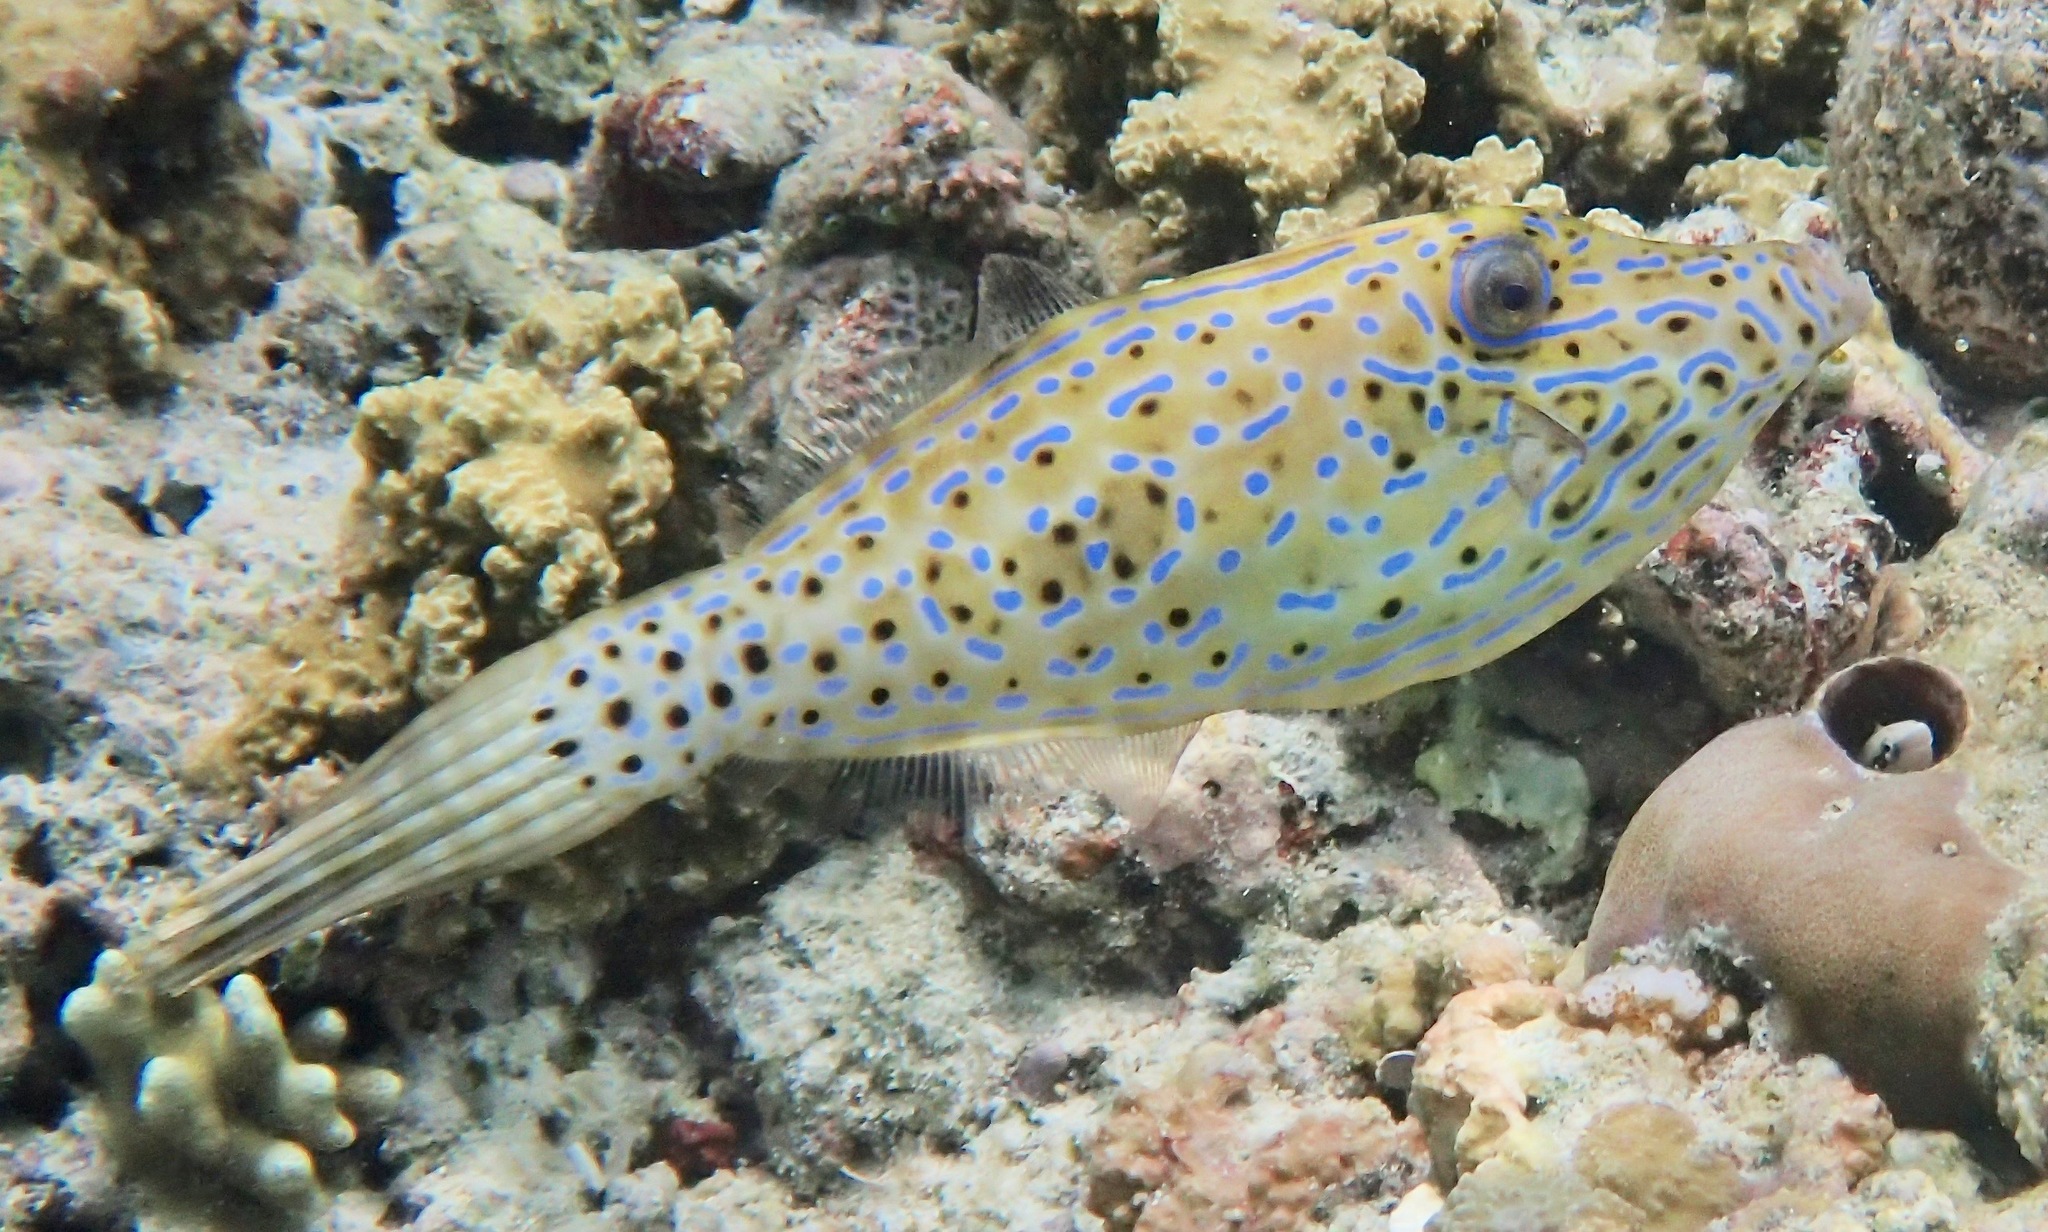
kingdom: Animalia
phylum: Chordata
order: Tetraodontiformes
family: Monacanthidae
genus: Aluterus
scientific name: Aluterus scriptus
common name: Scribbled leatherjacket filefish
